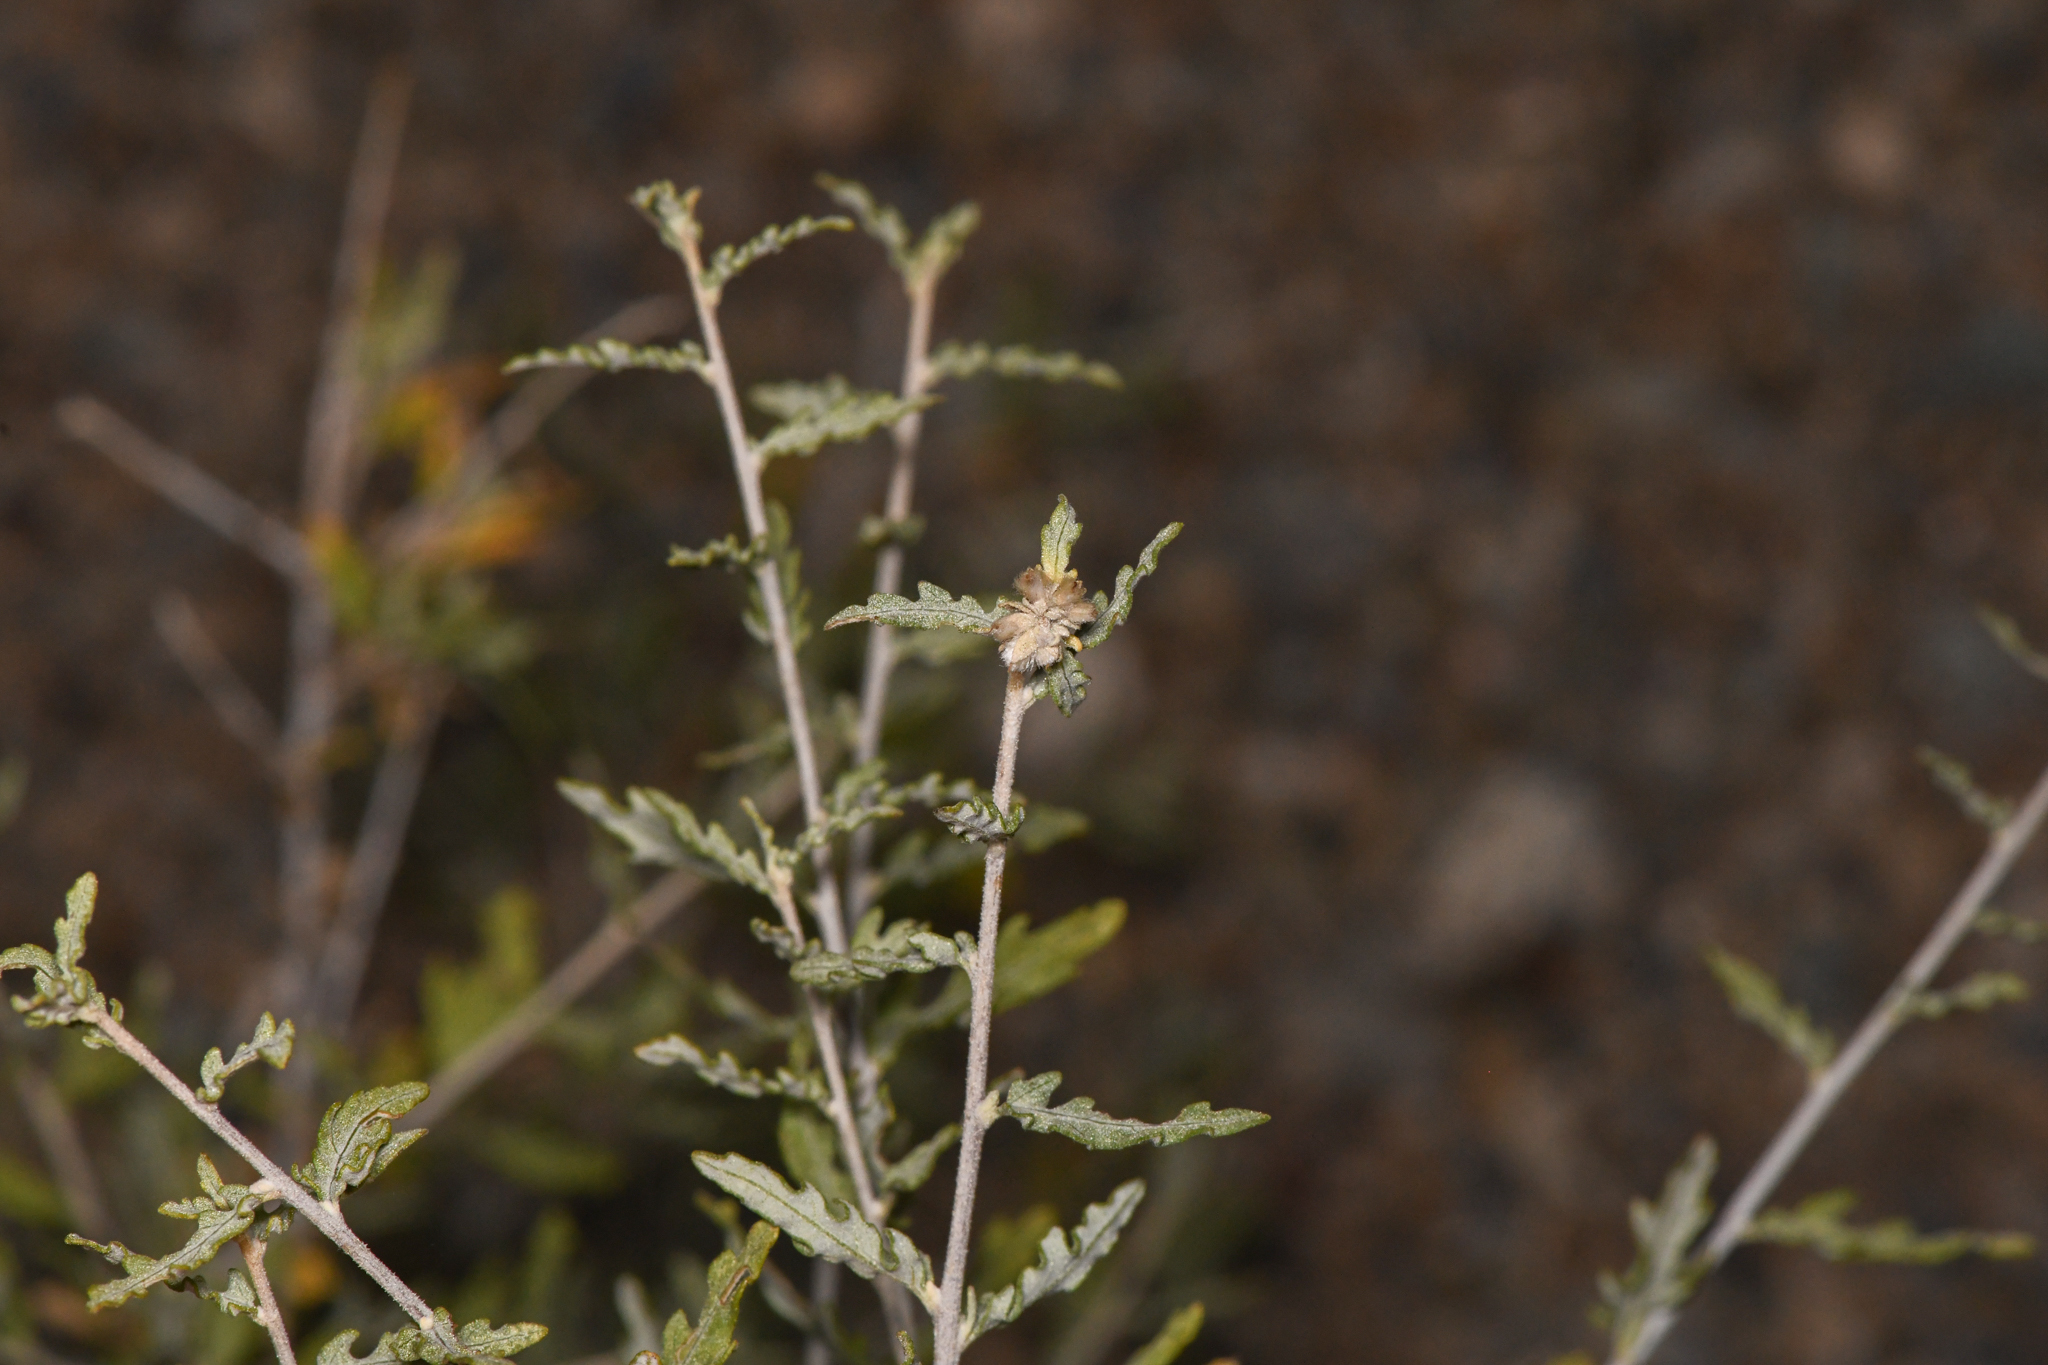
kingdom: Plantae
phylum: Tracheophyta
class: Magnoliopsida
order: Asterales
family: Asteraceae
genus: Ambrosia
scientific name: Ambrosia eriocentra
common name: Woolly bur-sage
